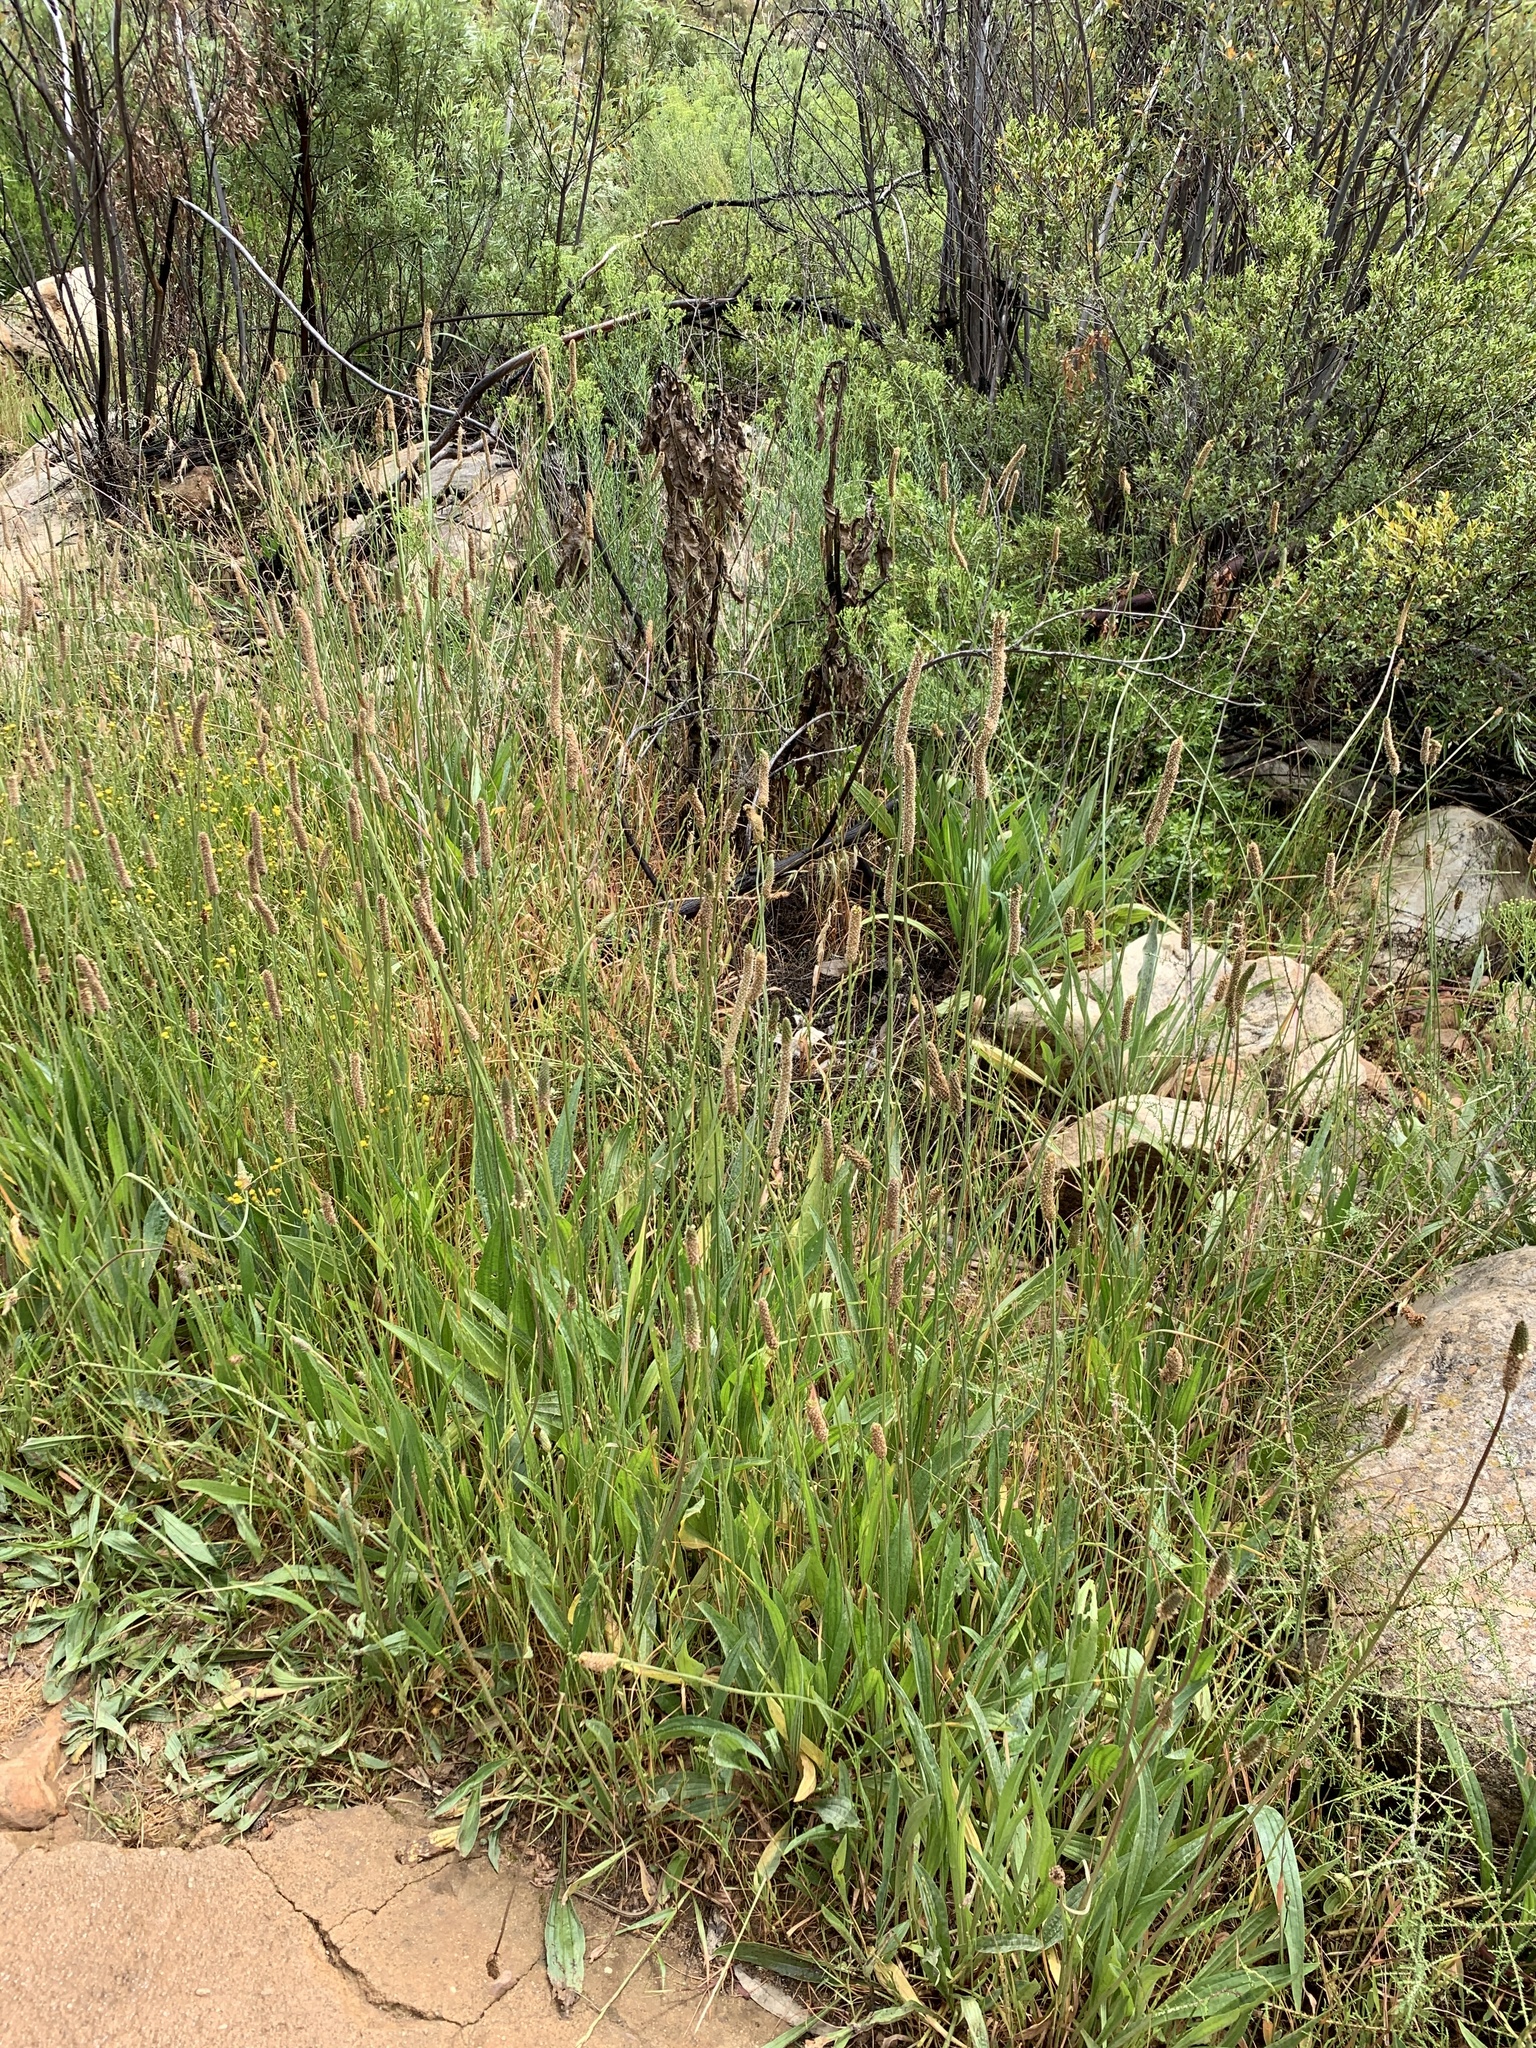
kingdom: Plantae
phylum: Tracheophyta
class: Magnoliopsida
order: Lamiales
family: Plantaginaceae
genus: Plantago
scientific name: Plantago lanceolata
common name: Ribwort plantain
